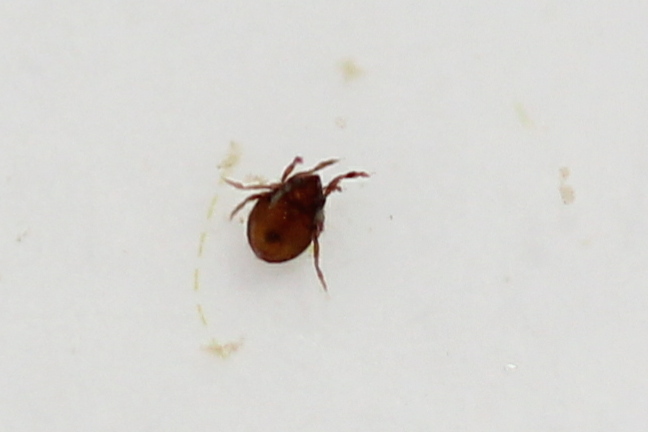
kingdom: Animalia
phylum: Arthropoda
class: Arachnida
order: Sarcoptiformes
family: Hydrozetidae
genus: Hydrozetes
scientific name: Hydrozetes
